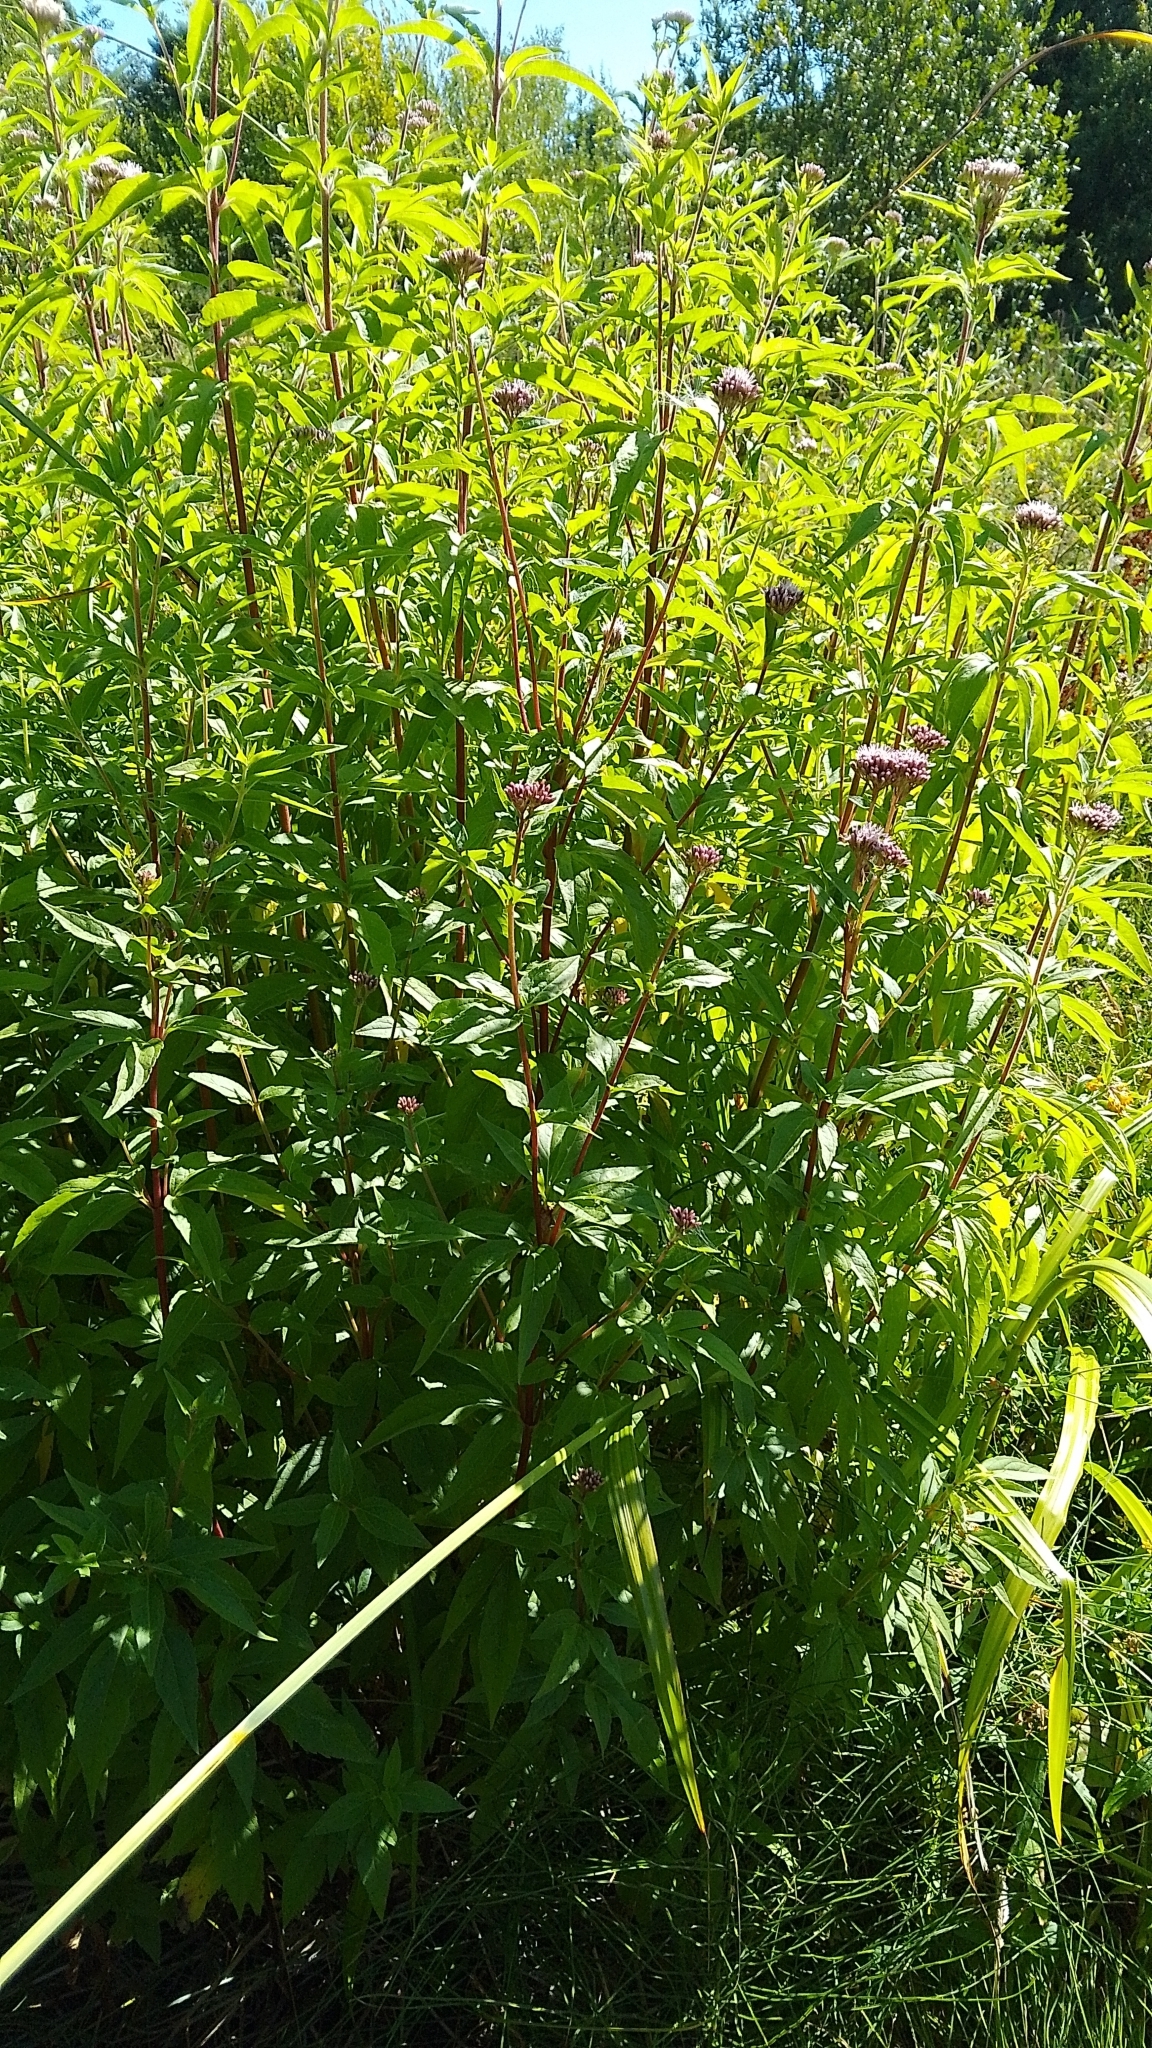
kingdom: Plantae
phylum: Tracheophyta
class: Magnoliopsida
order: Asterales
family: Asteraceae
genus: Eupatorium
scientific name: Eupatorium cannabinum
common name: Hemp-agrimony
